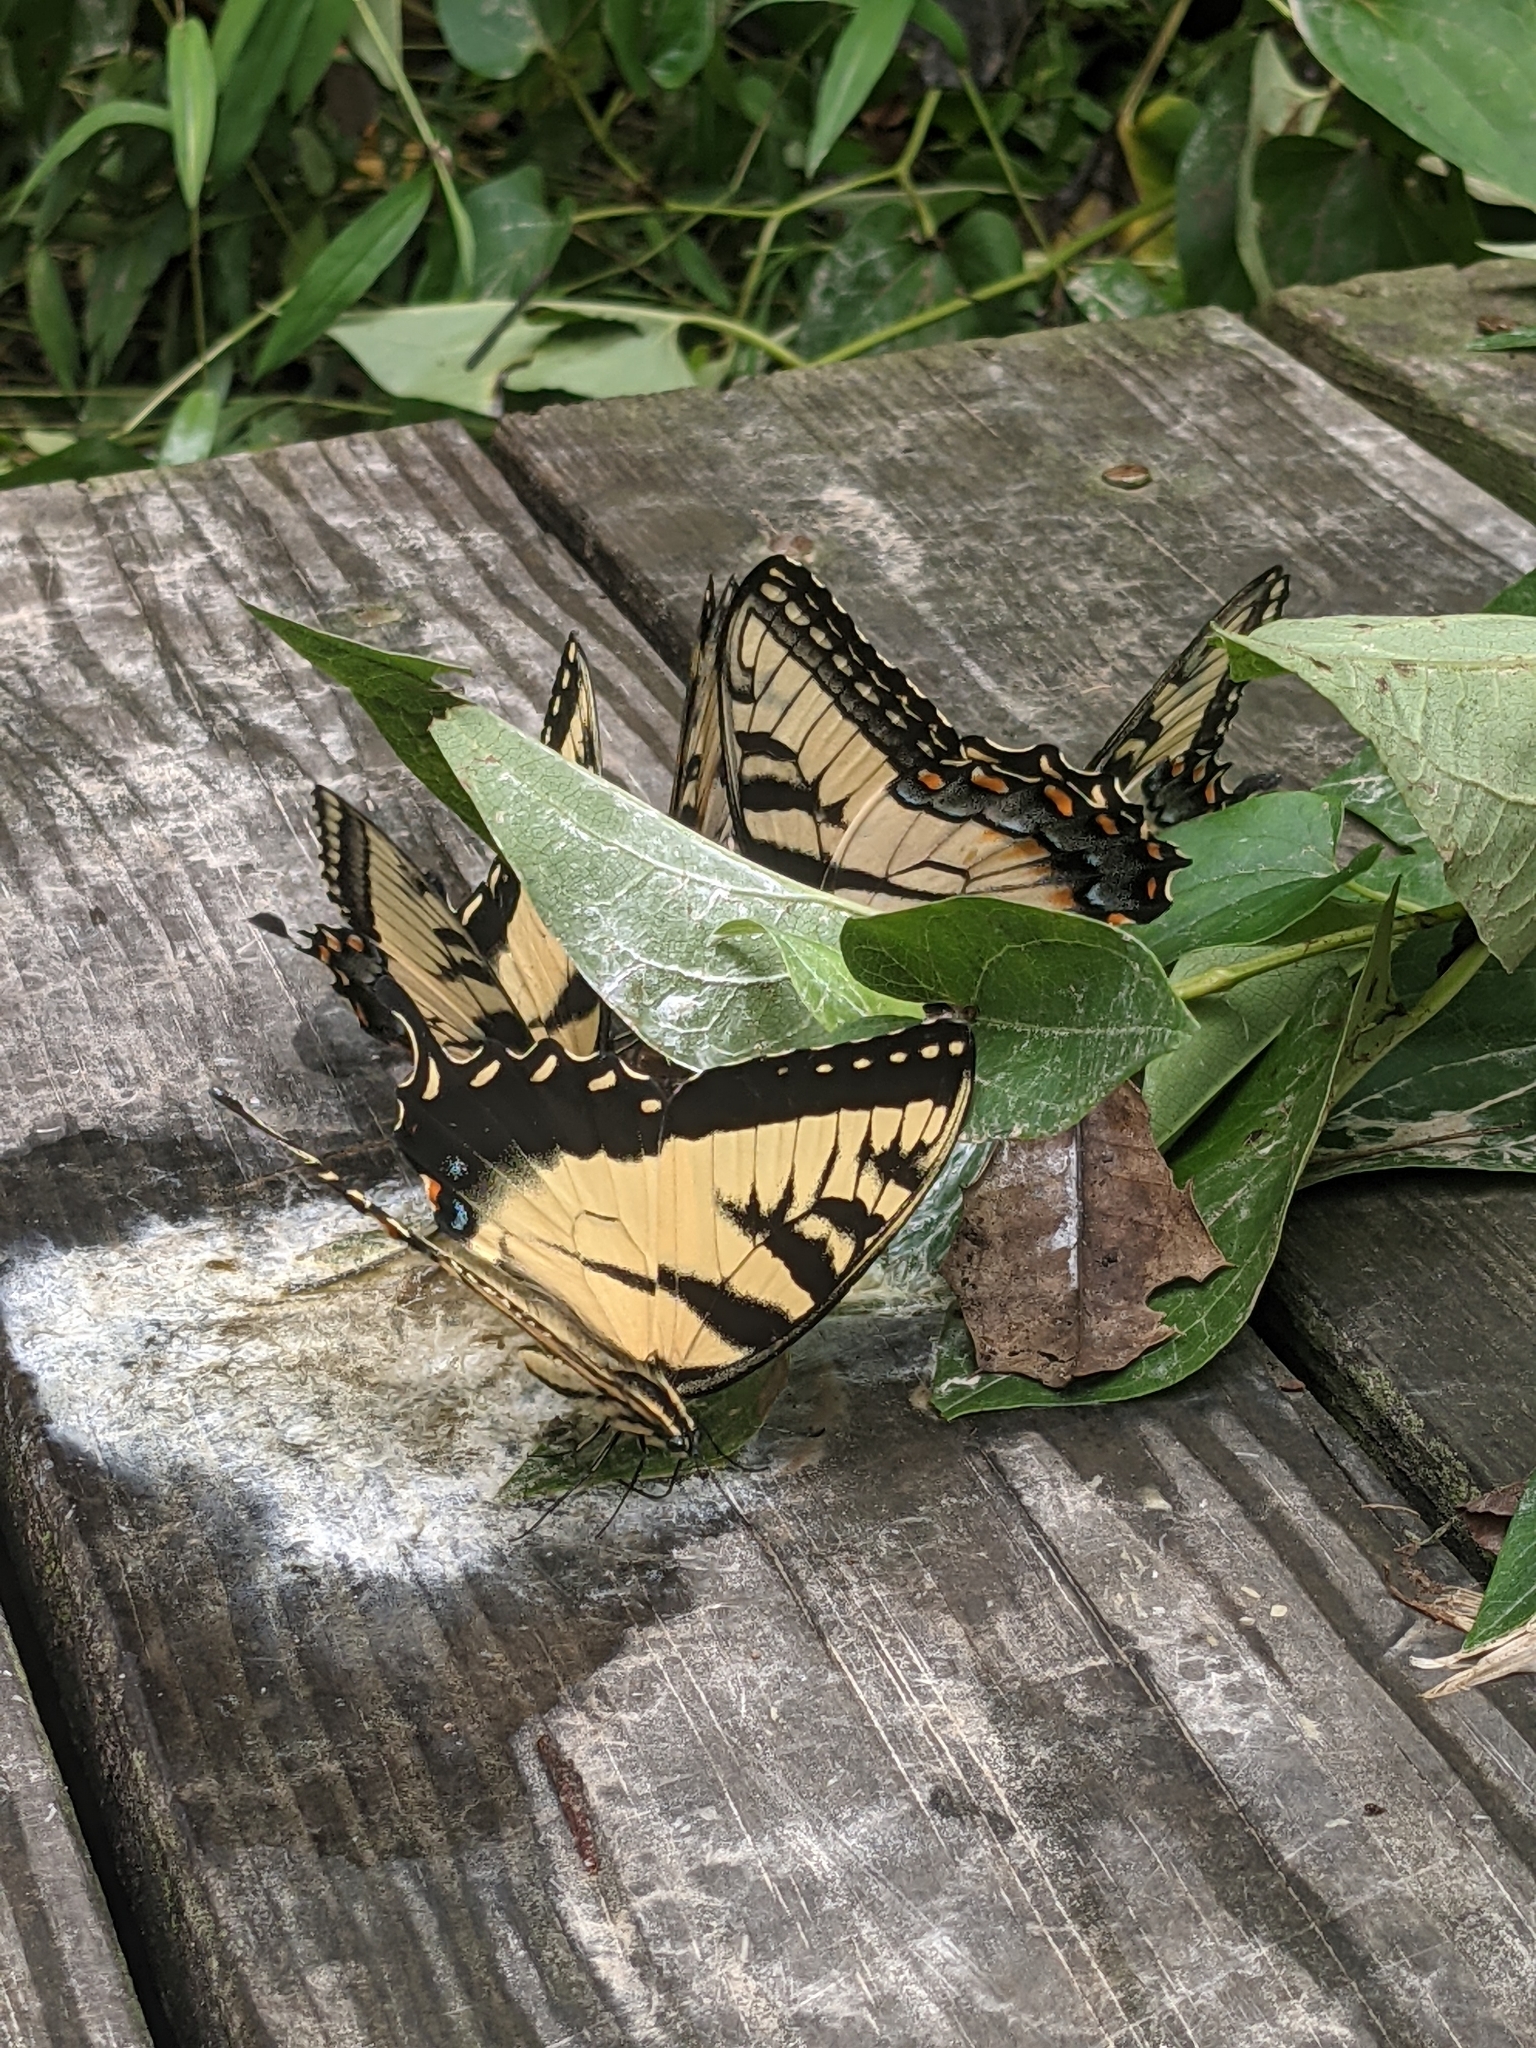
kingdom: Animalia
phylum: Arthropoda
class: Insecta
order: Lepidoptera
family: Papilionidae
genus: Papilio
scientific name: Papilio glaucus
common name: Tiger swallowtail
